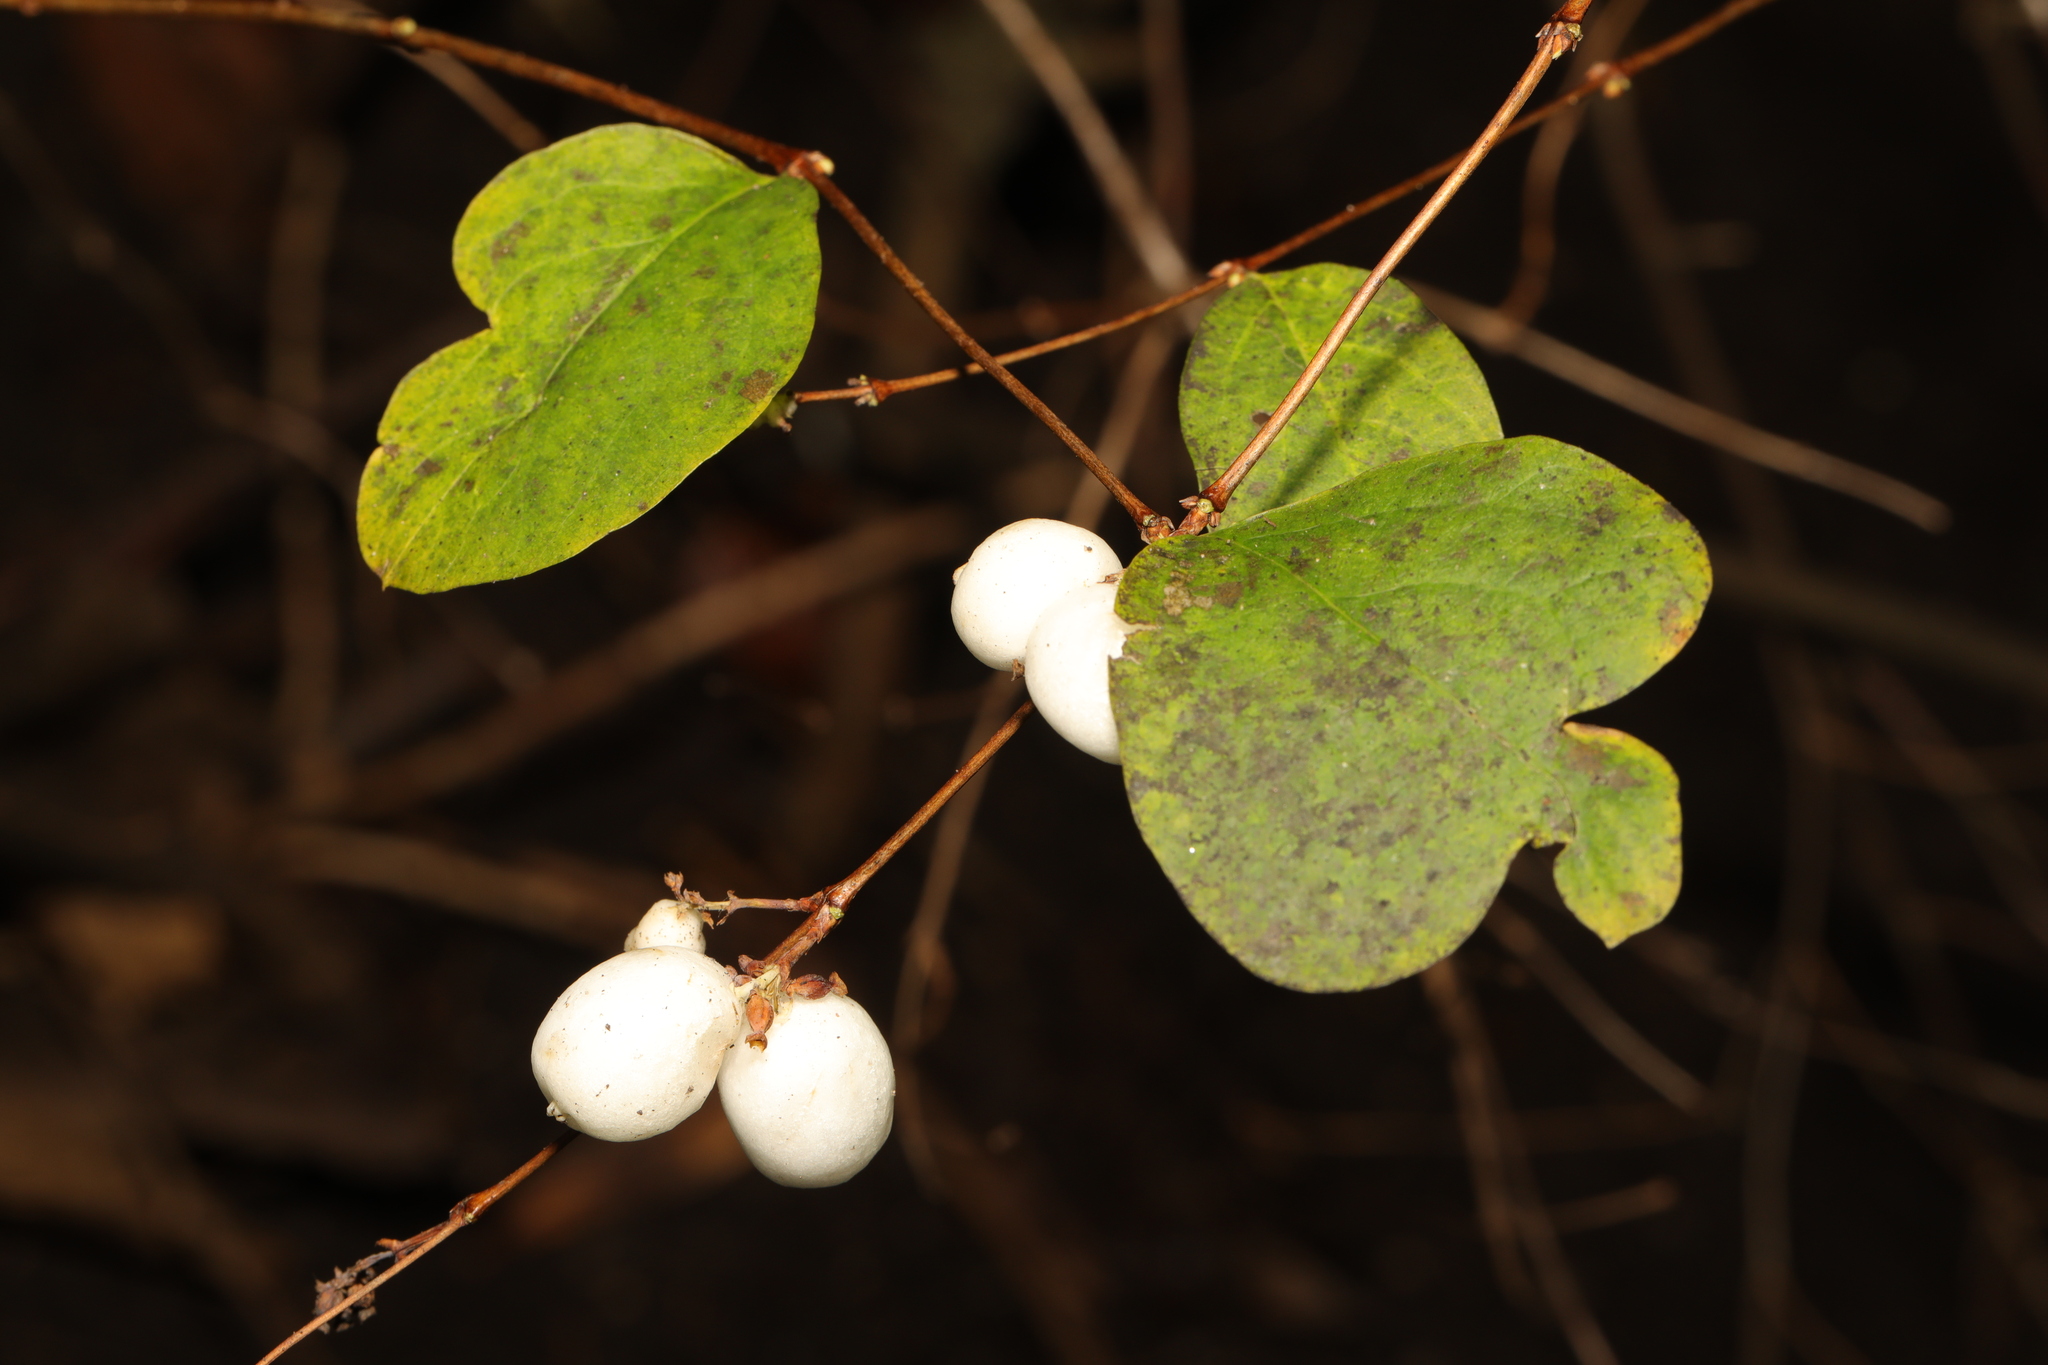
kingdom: Plantae
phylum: Tracheophyta
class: Magnoliopsida
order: Dipsacales
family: Caprifoliaceae
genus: Symphoricarpos
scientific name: Symphoricarpos albus
